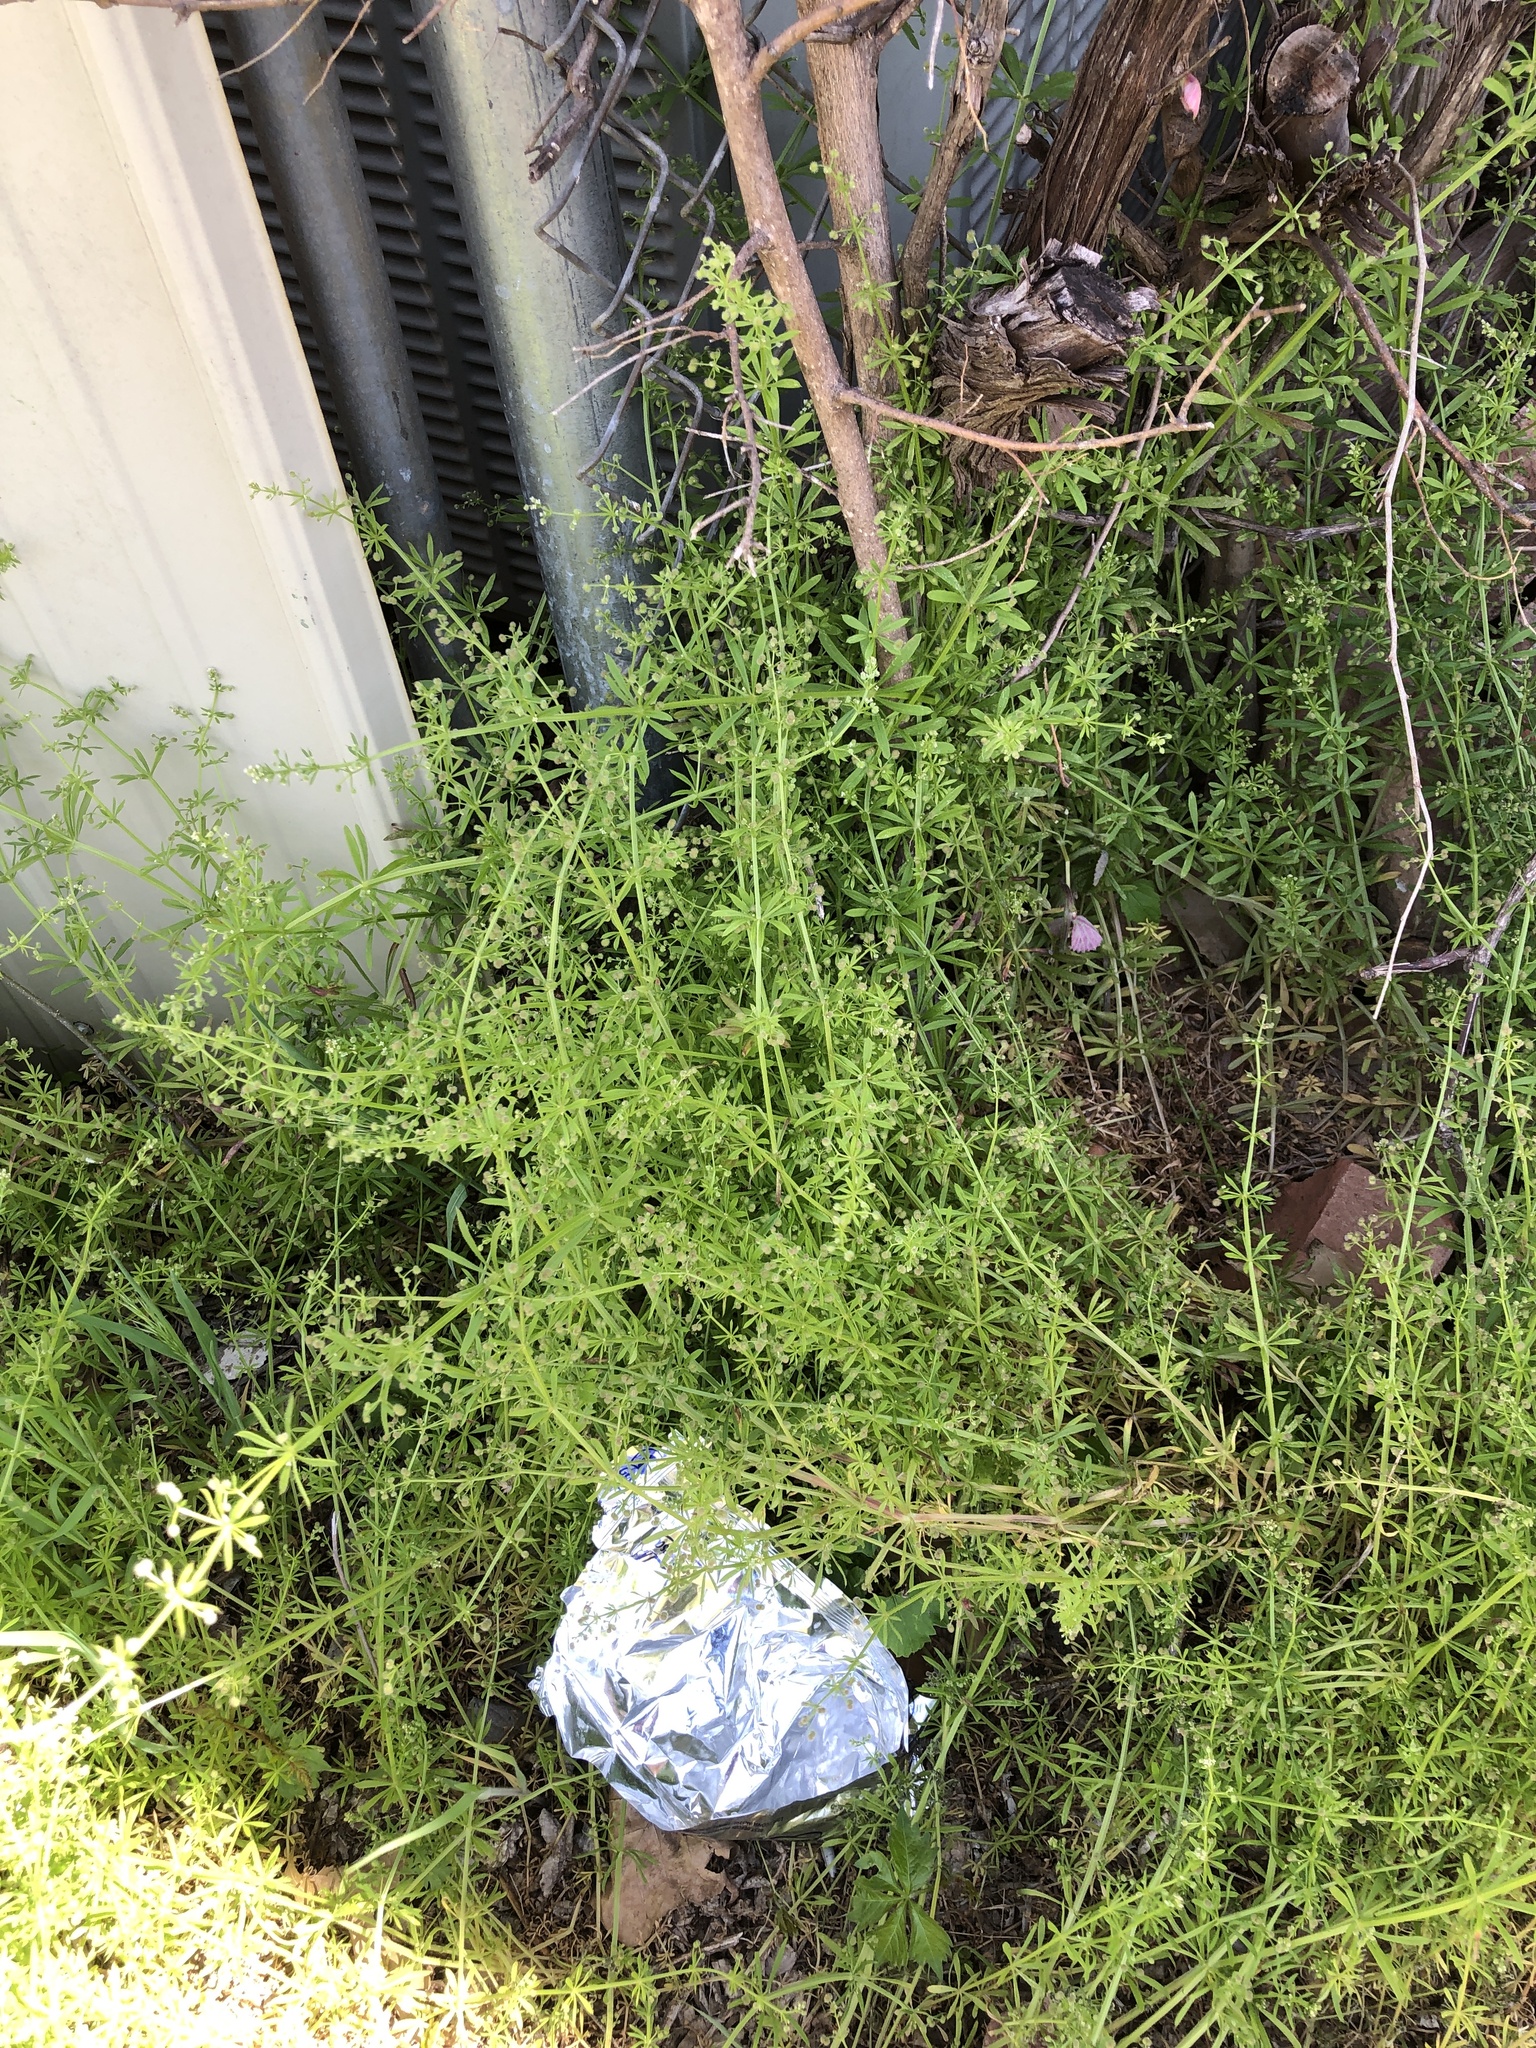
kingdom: Plantae
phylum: Tracheophyta
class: Magnoliopsida
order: Gentianales
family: Rubiaceae
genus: Galium
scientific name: Galium aparine
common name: Cleavers
